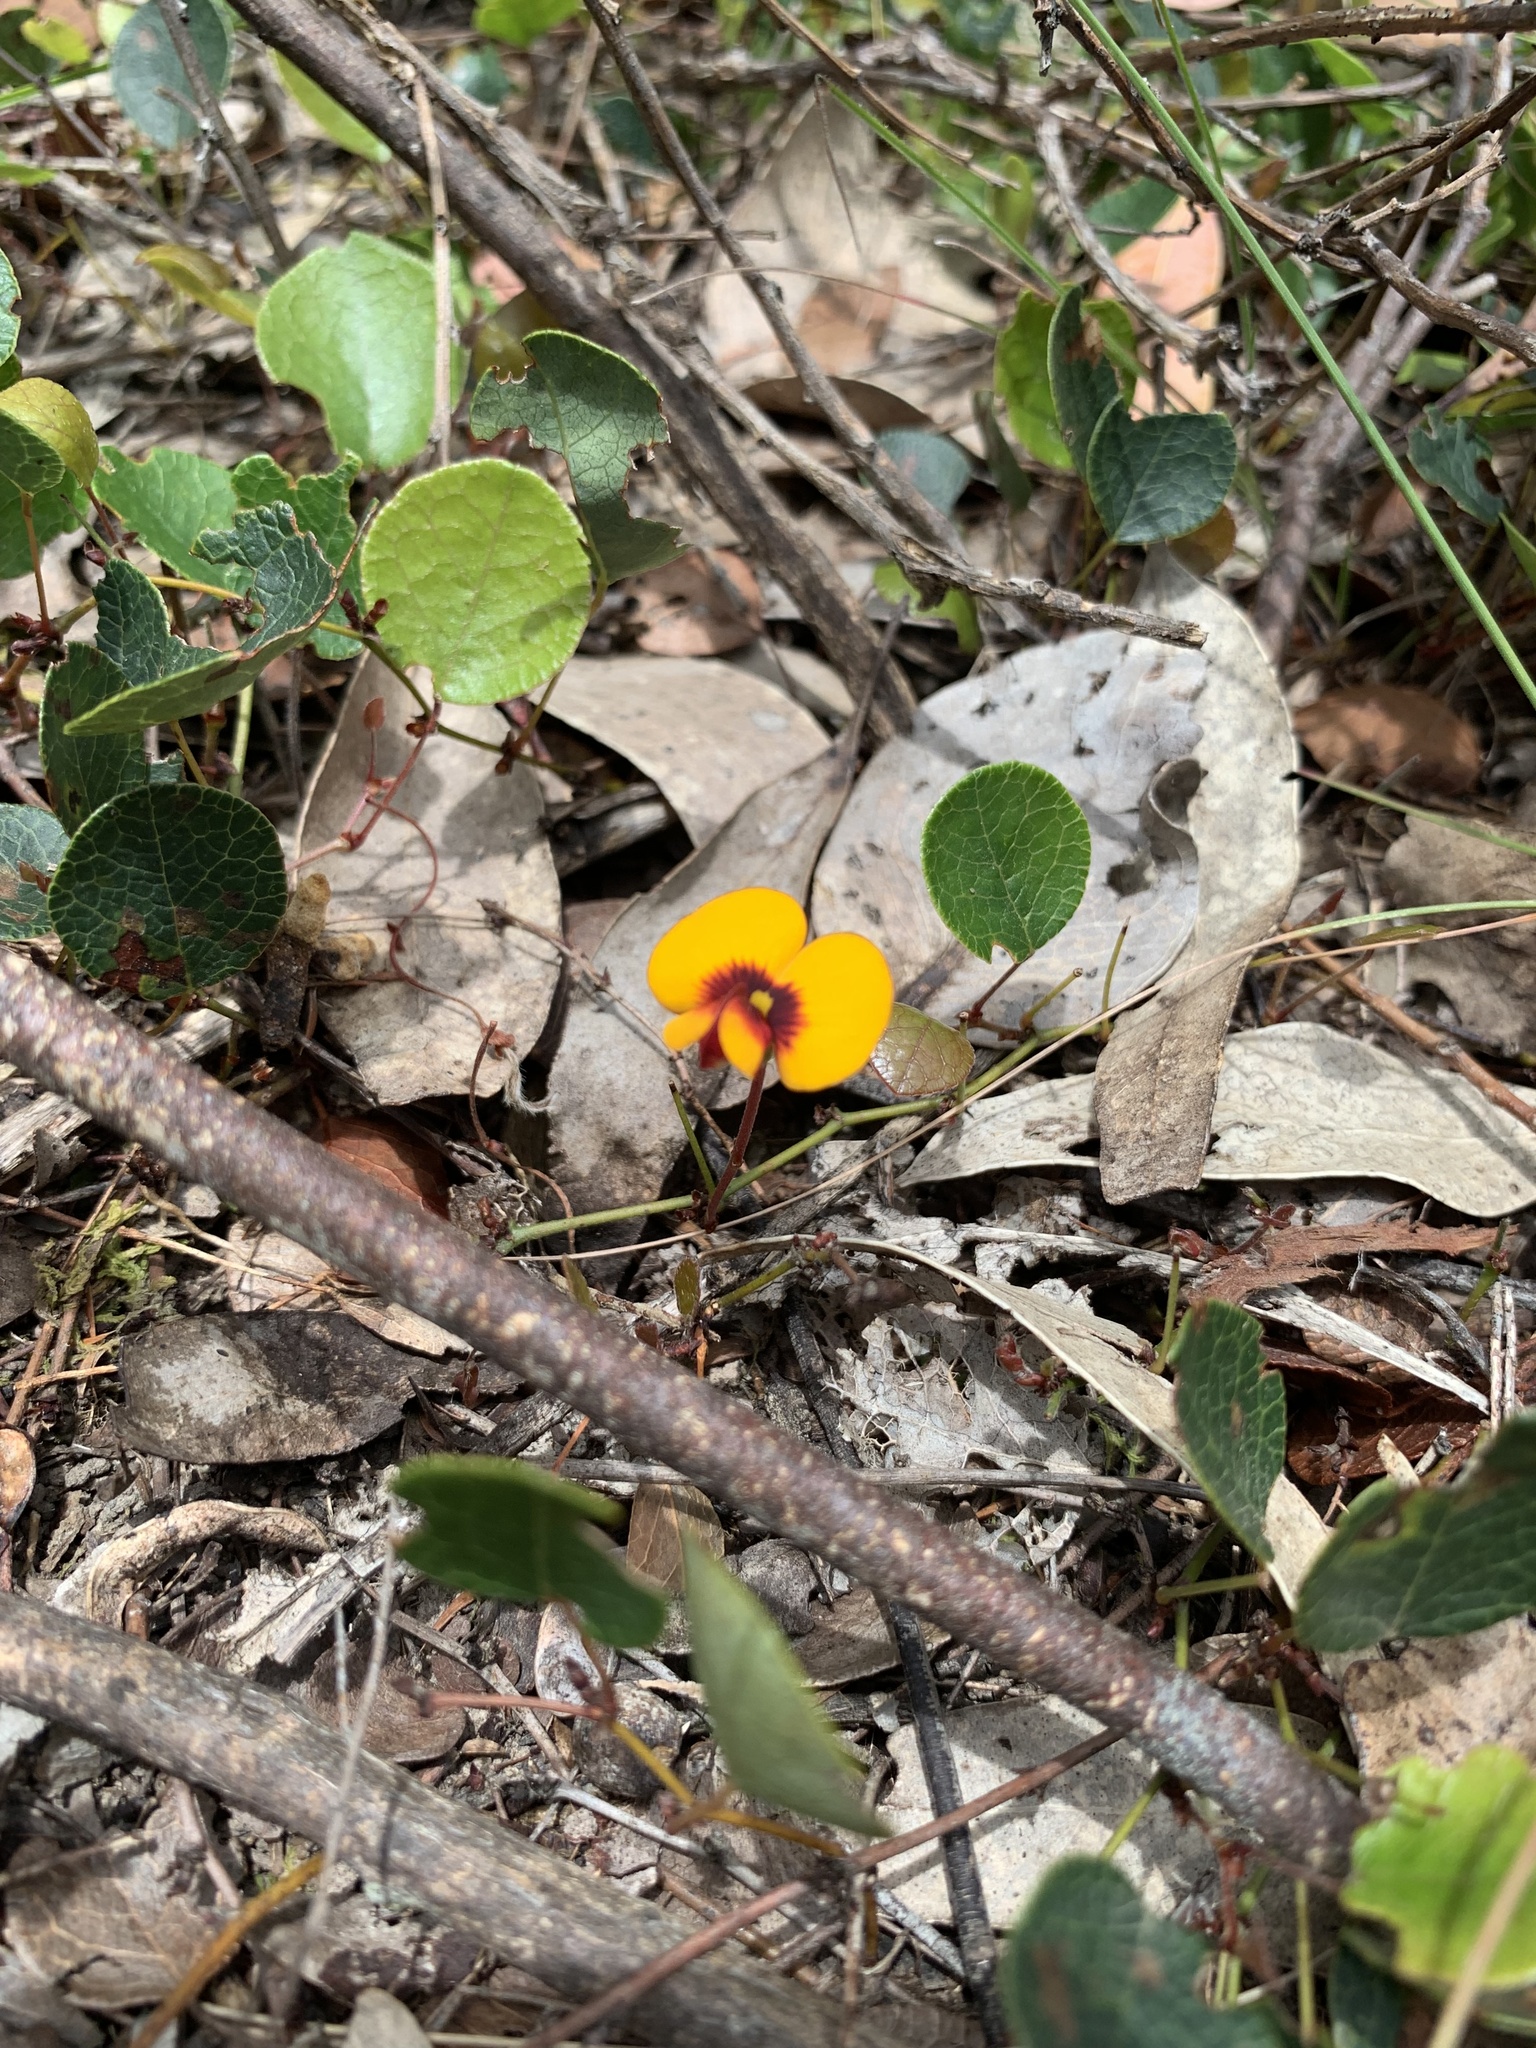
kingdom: Plantae
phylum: Tracheophyta
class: Magnoliopsida
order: Fabales
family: Fabaceae
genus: Platylobium
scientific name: Platylobium rotundum
